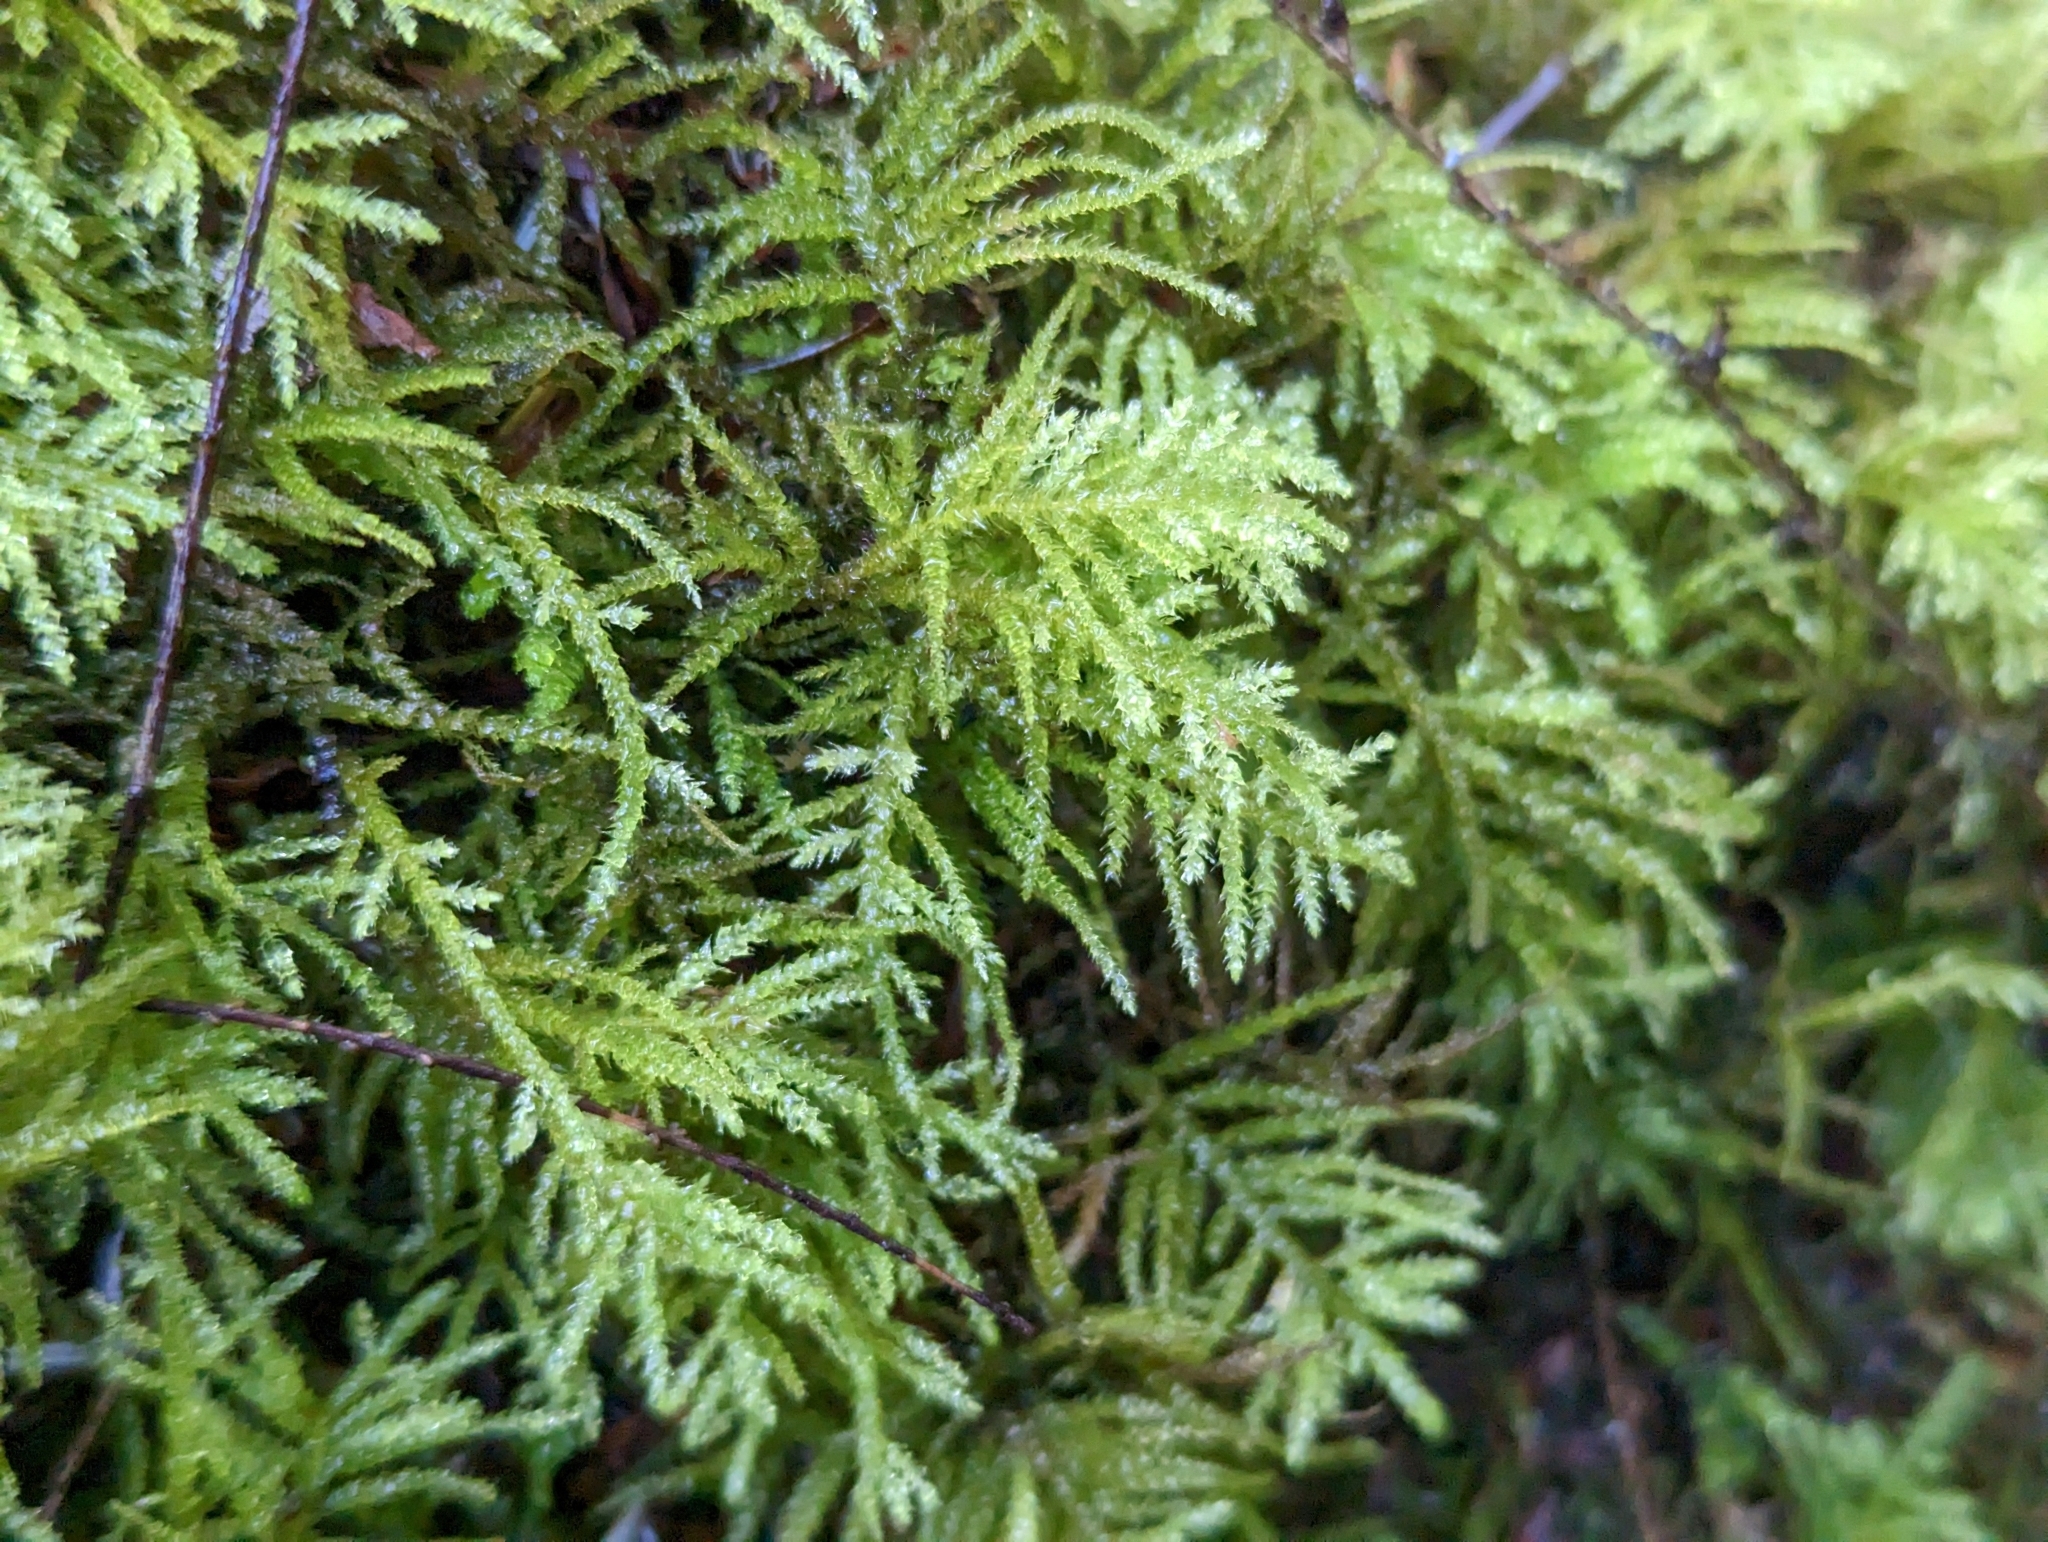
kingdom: Plantae
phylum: Bryophyta
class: Bryopsida
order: Hypnales
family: Brachytheciaceae
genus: Kindbergia
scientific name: Kindbergia praelonga
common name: Slender beaked moss
